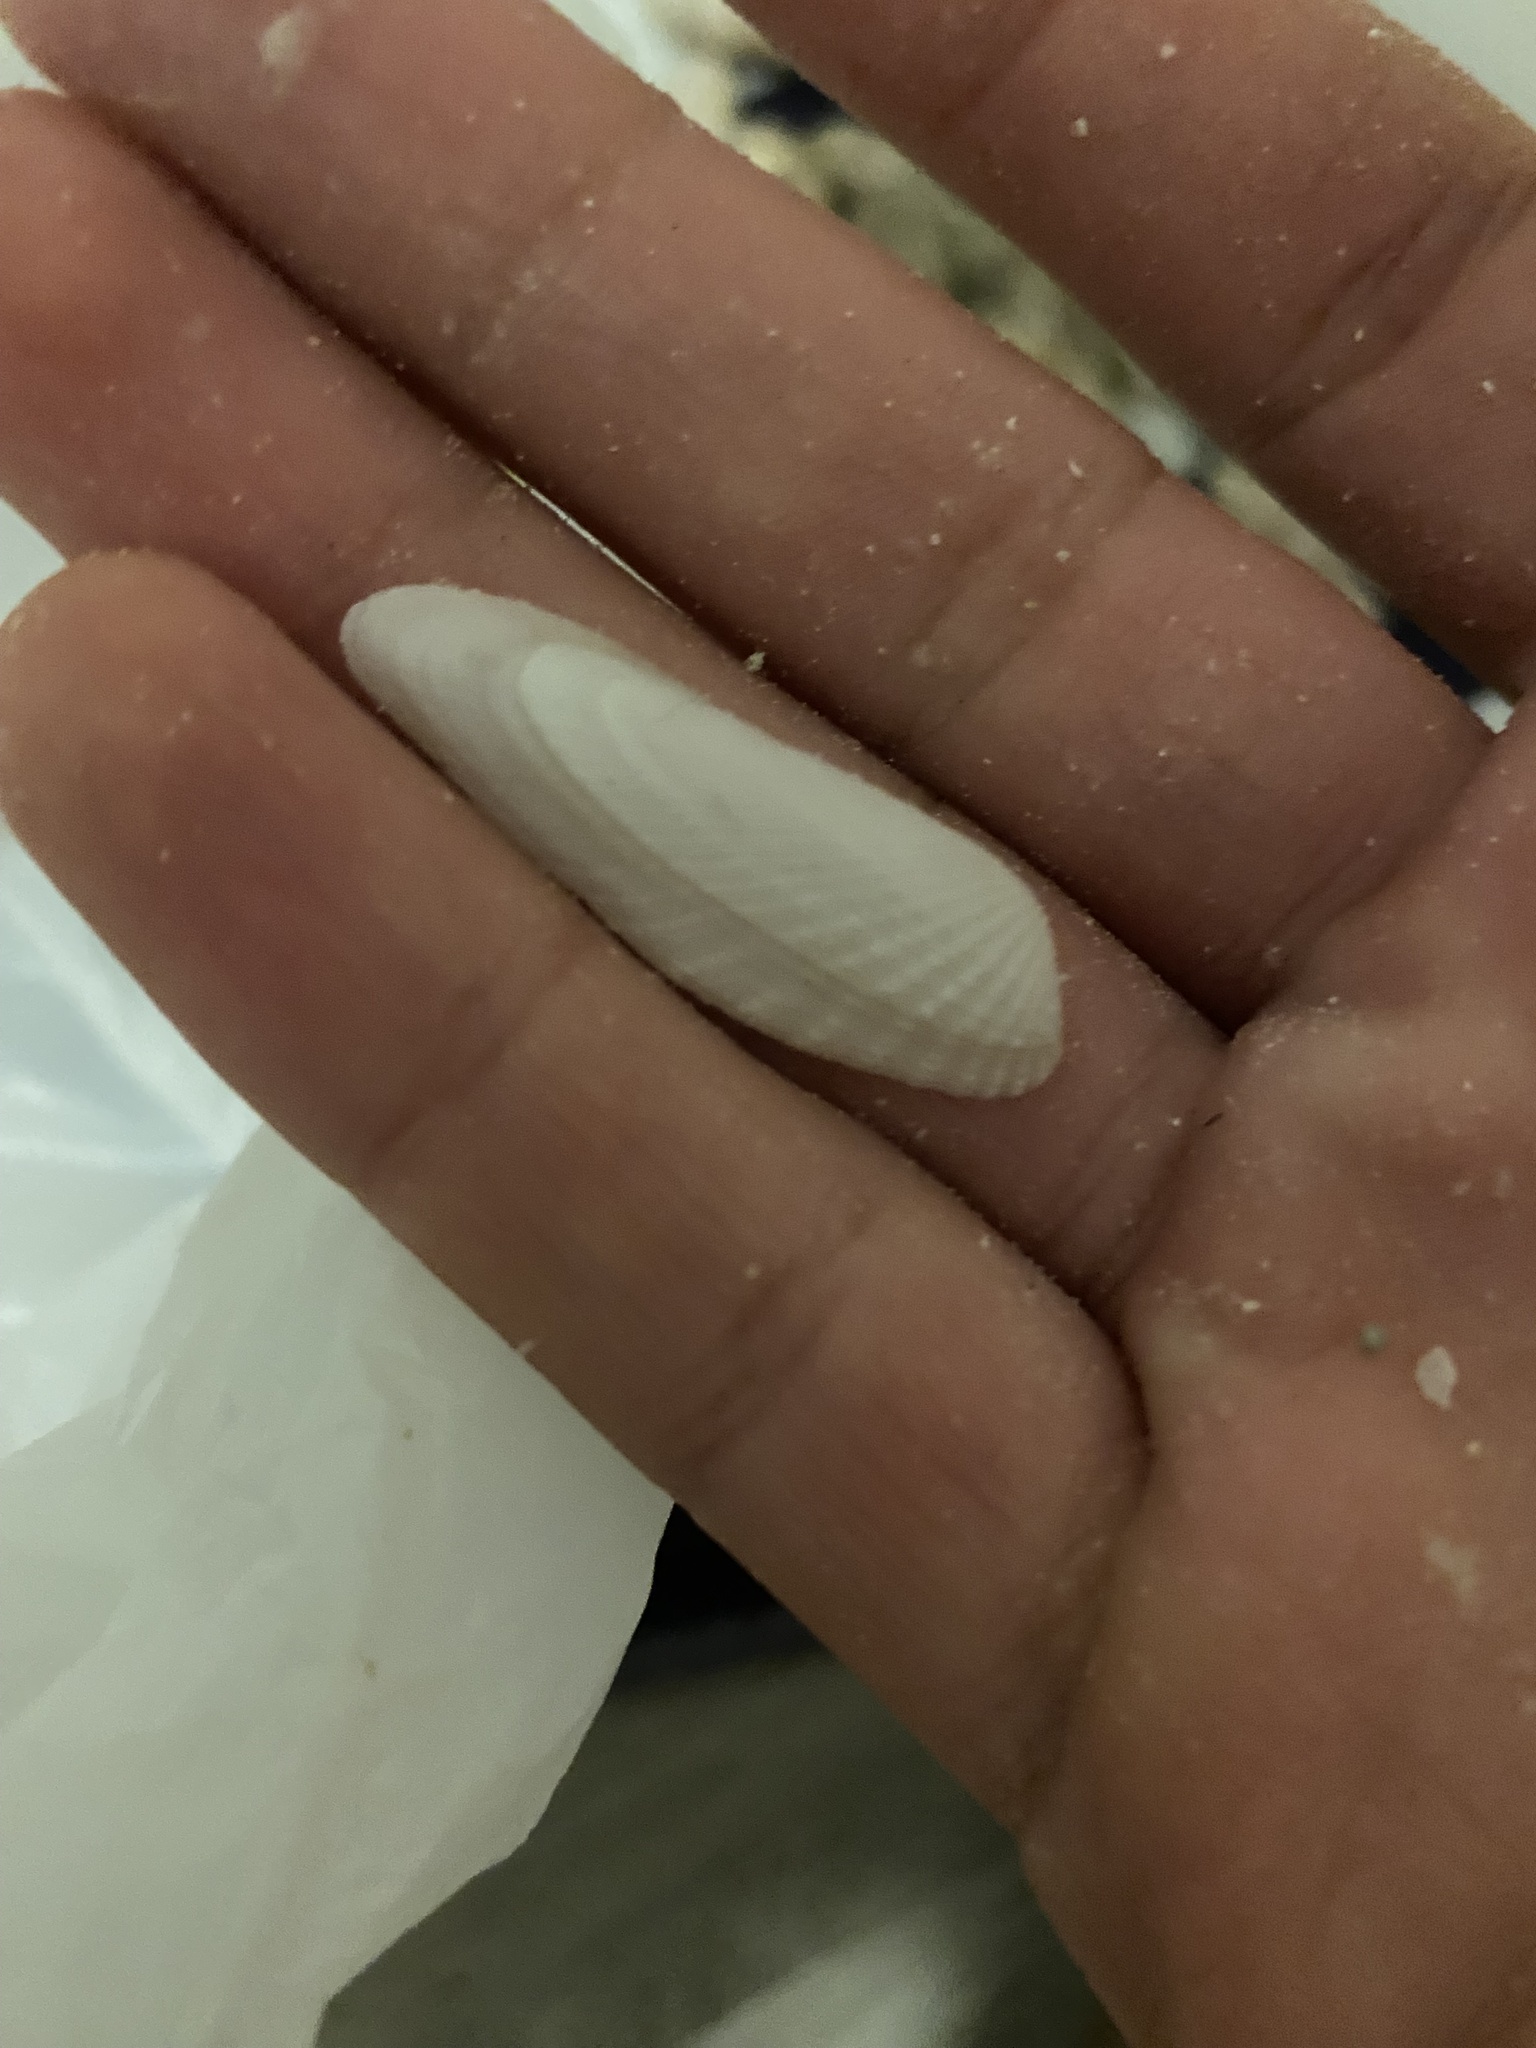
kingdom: Animalia
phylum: Mollusca
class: Bivalvia
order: Myida
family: Pholadidae
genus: Pholas
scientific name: Pholas campechiensis
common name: Campeche angel wing
